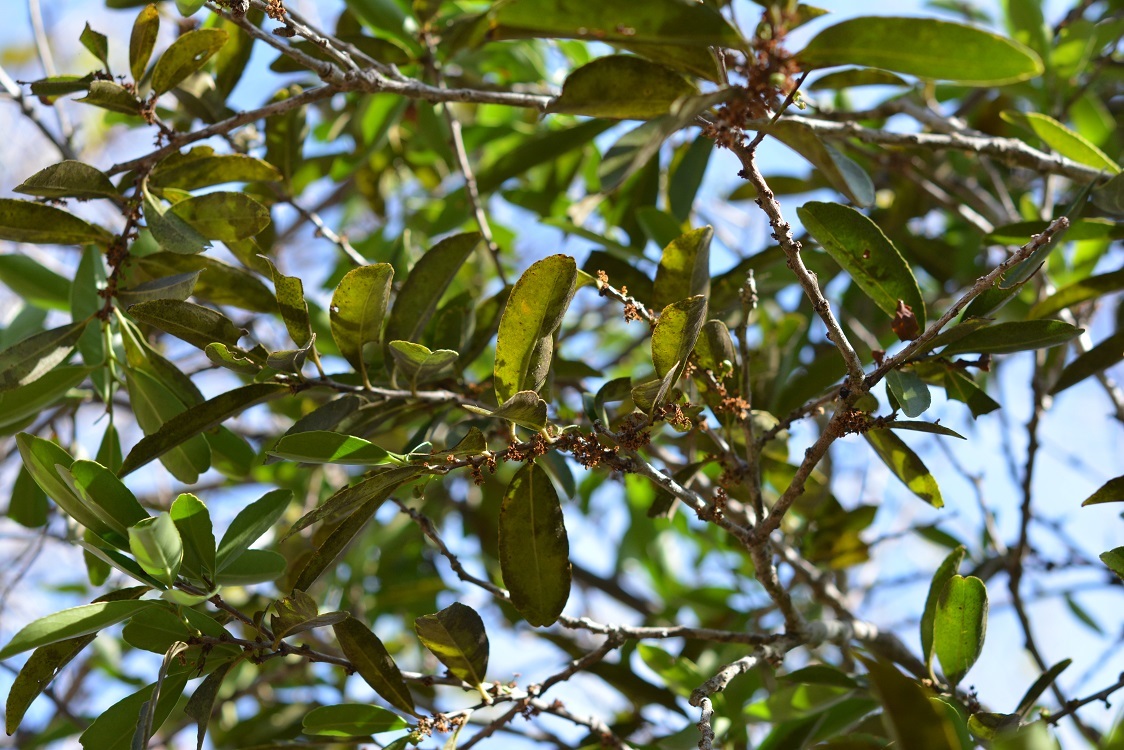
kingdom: Plantae
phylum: Tracheophyta
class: Magnoliopsida
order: Celastrales
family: Celastraceae
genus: Monteverdia
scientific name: Monteverdia chiapensis
